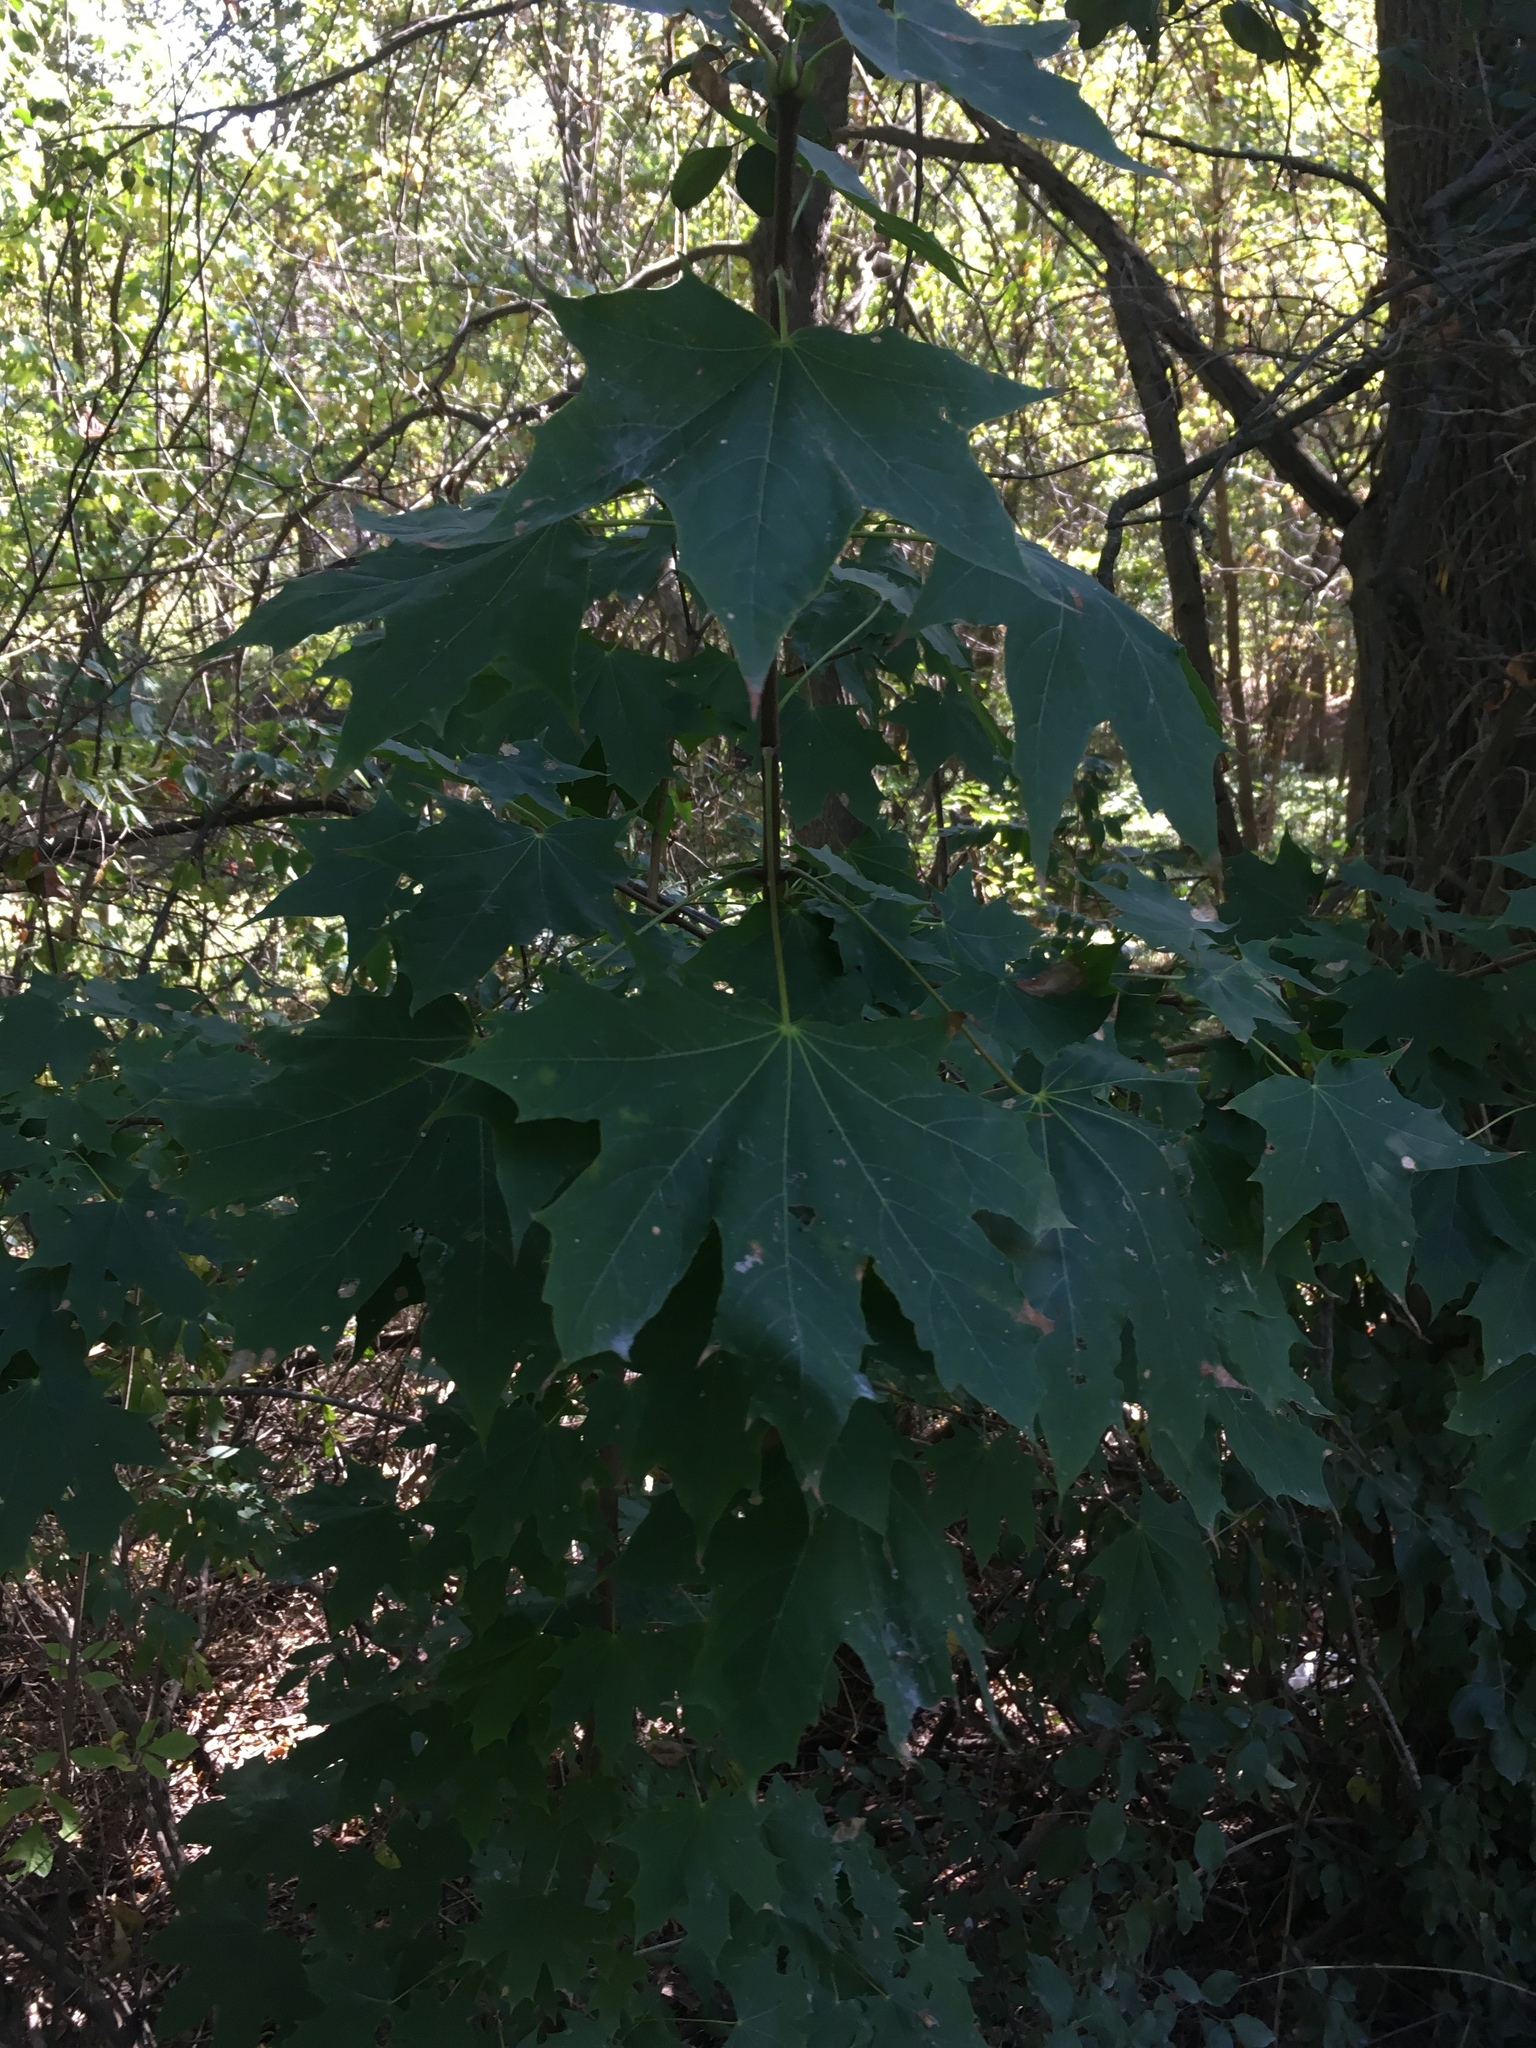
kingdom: Plantae
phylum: Tracheophyta
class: Magnoliopsida
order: Sapindales
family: Sapindaceae
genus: Acer
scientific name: Acer platanoides
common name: Norway maple
